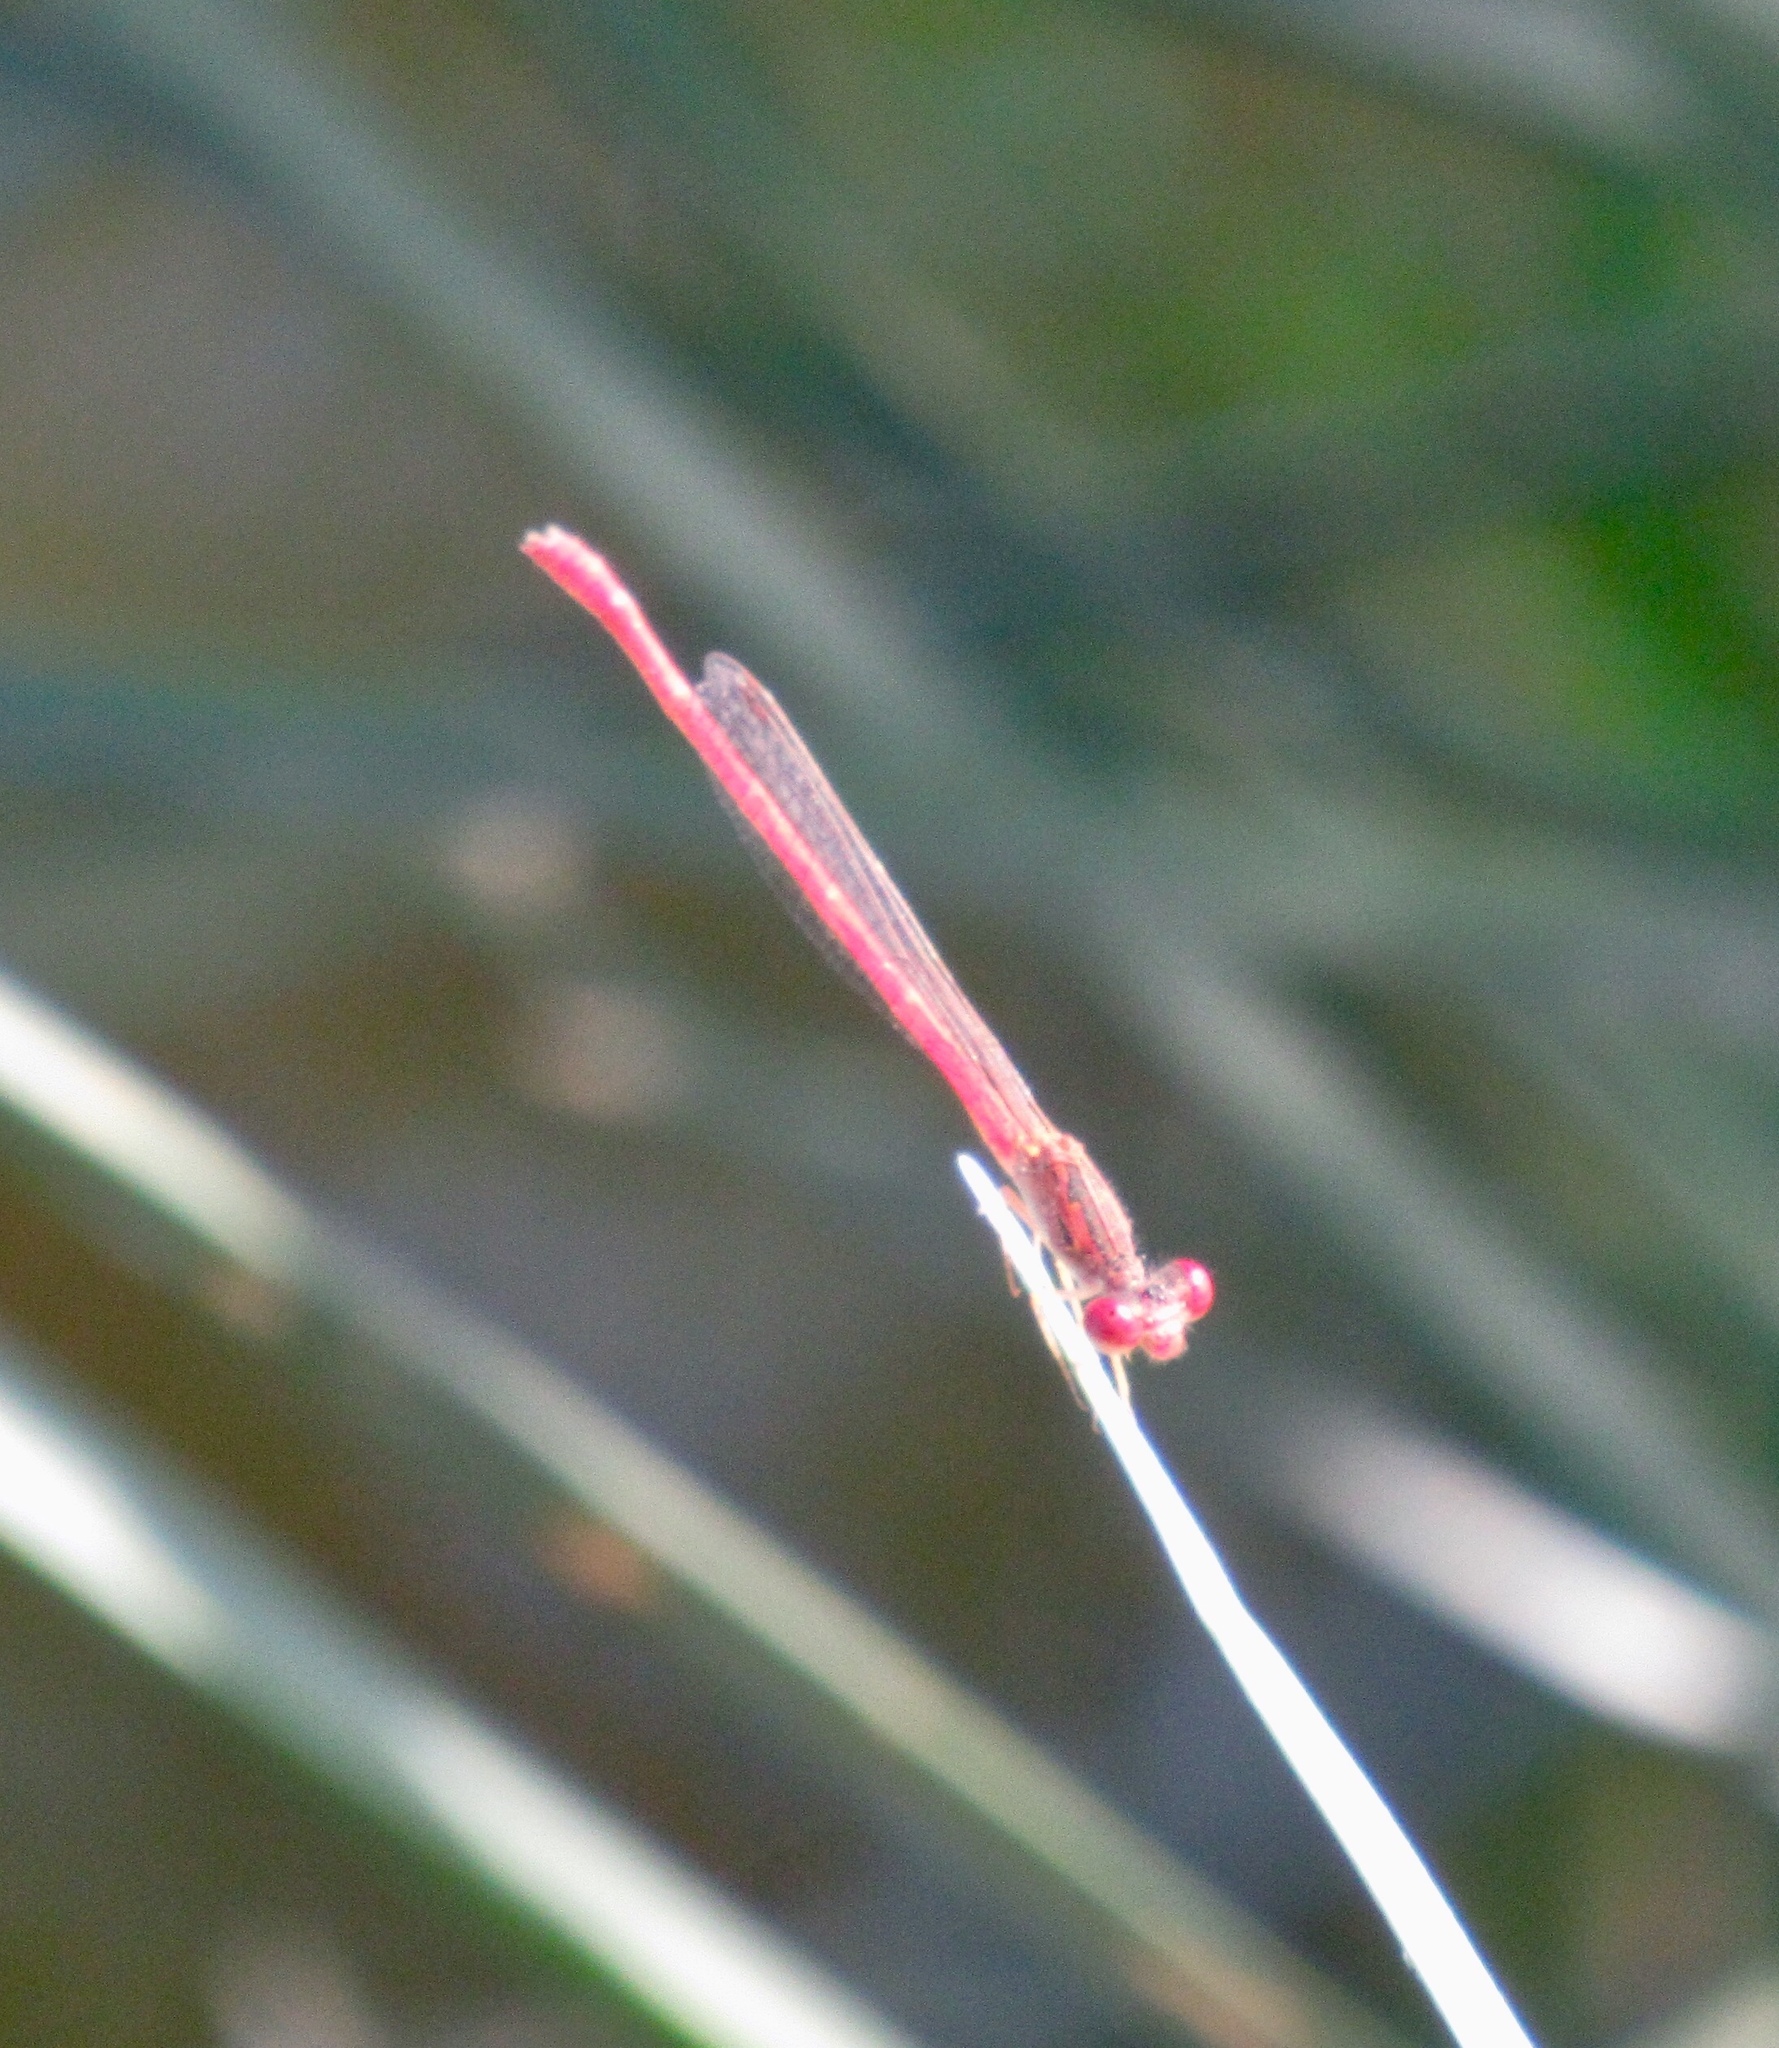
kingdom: Animalia
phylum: Arthropoda
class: Insecta
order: Odonata
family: Coenagrionidae
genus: Telebasis
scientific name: Telebasis salva
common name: Desert firetail
